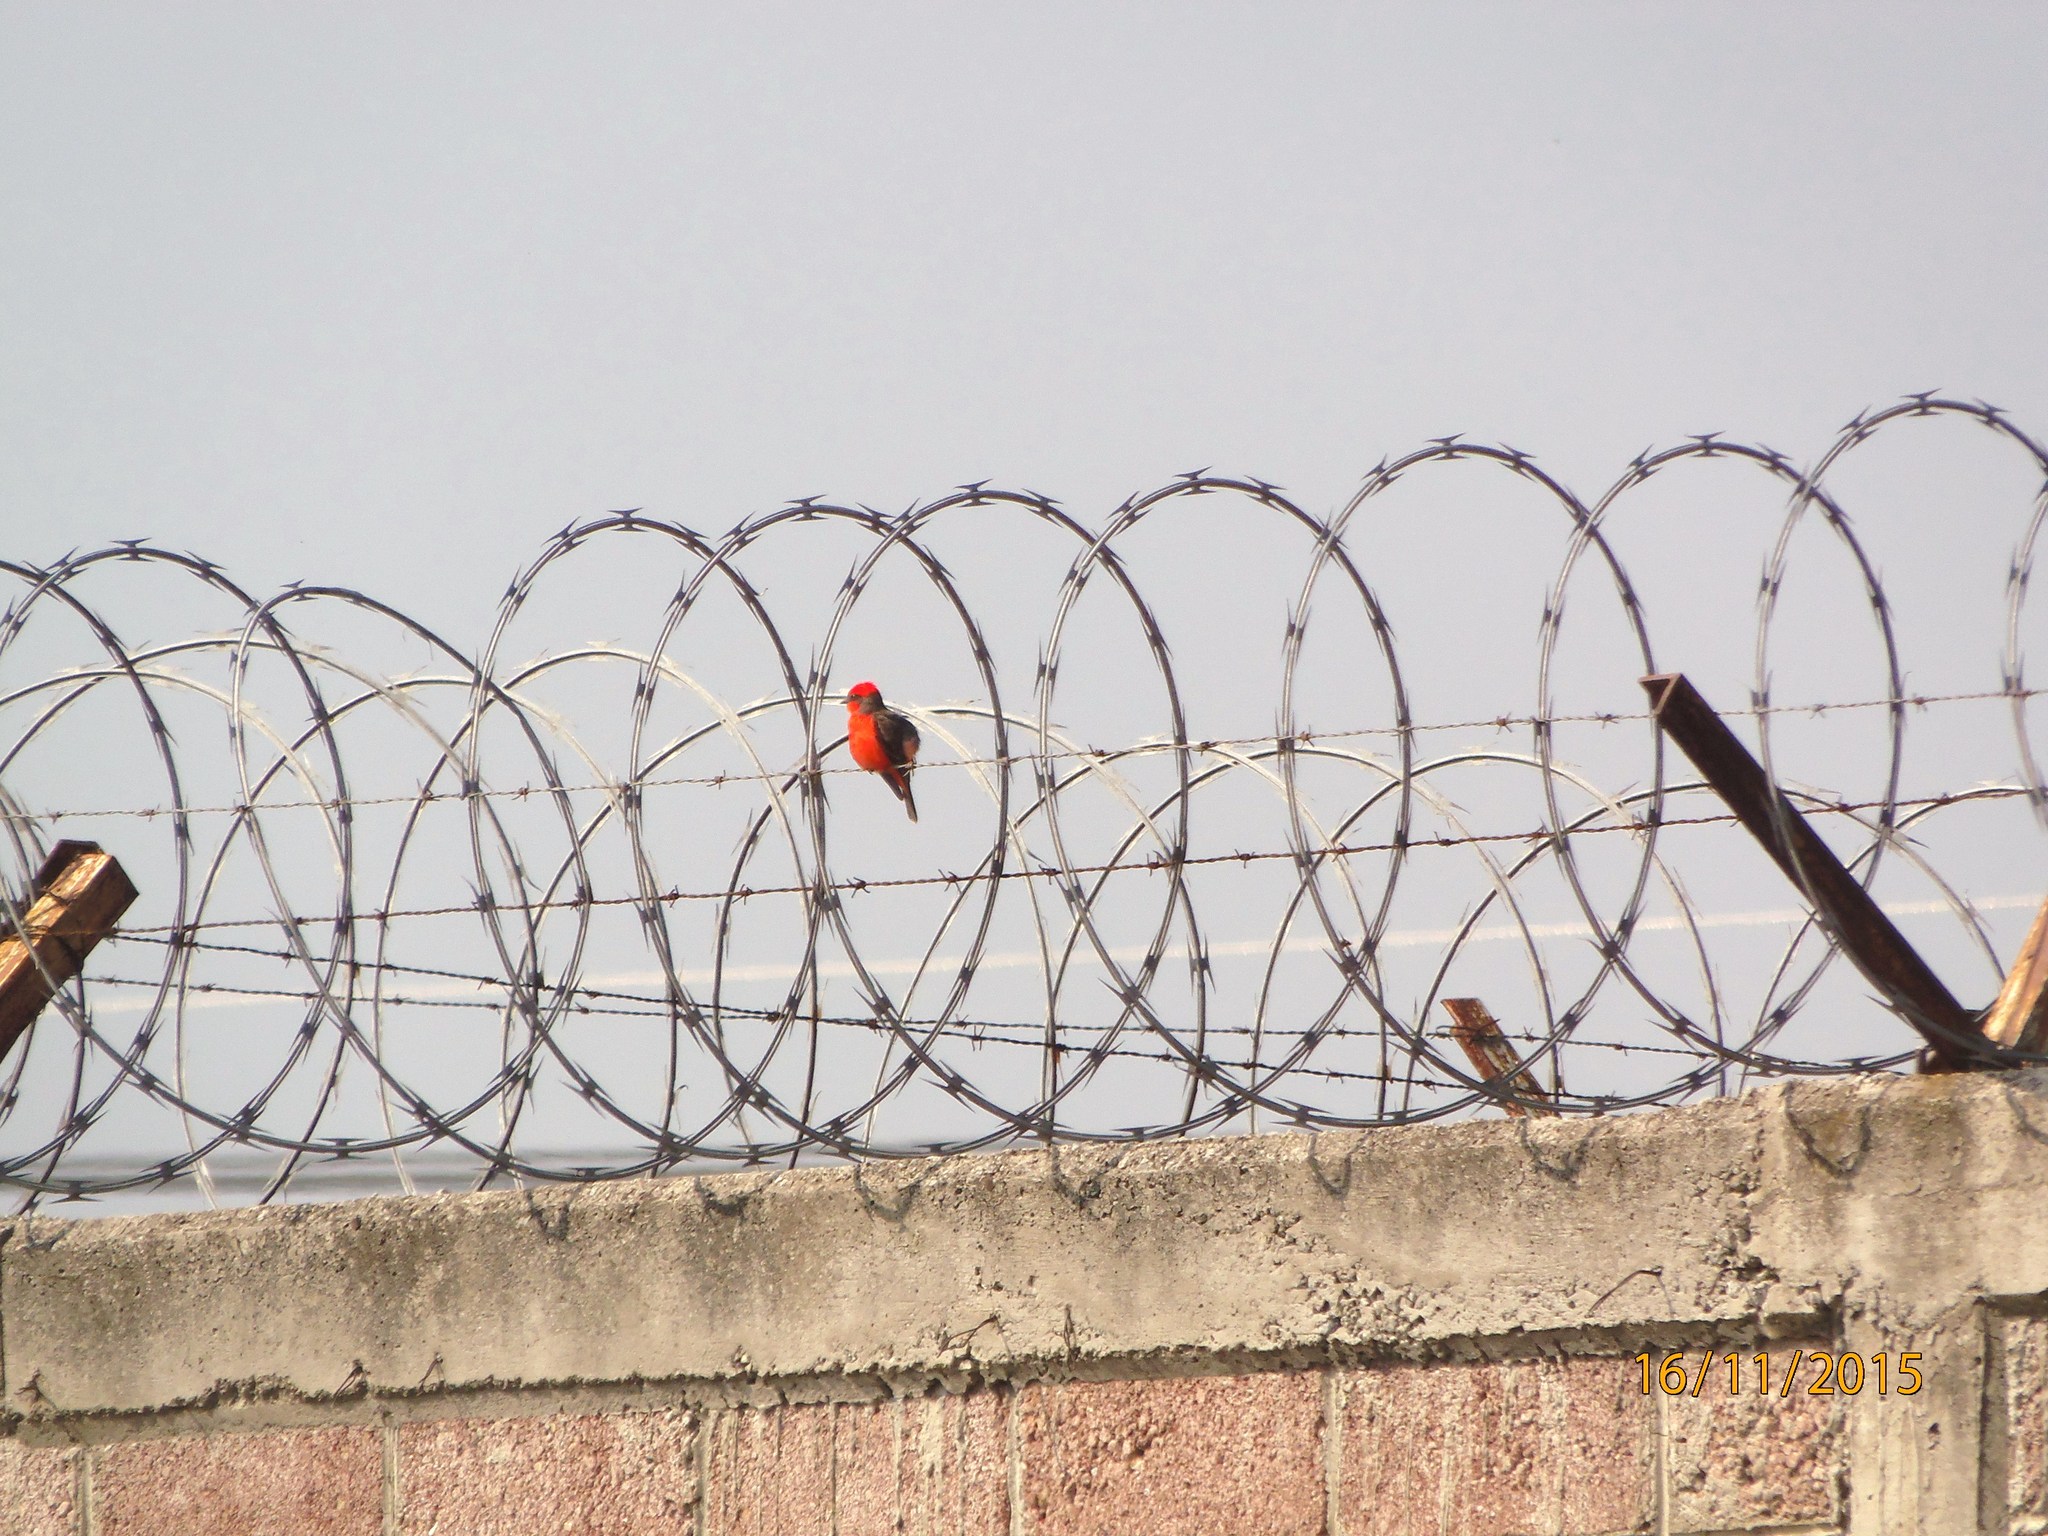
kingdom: Animalia
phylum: Chordata
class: Aves
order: Passeriformes
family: Tyrannidae
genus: Pyrocephalus
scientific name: Pyrocephalus rubinus
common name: Vermilion flycatcher
